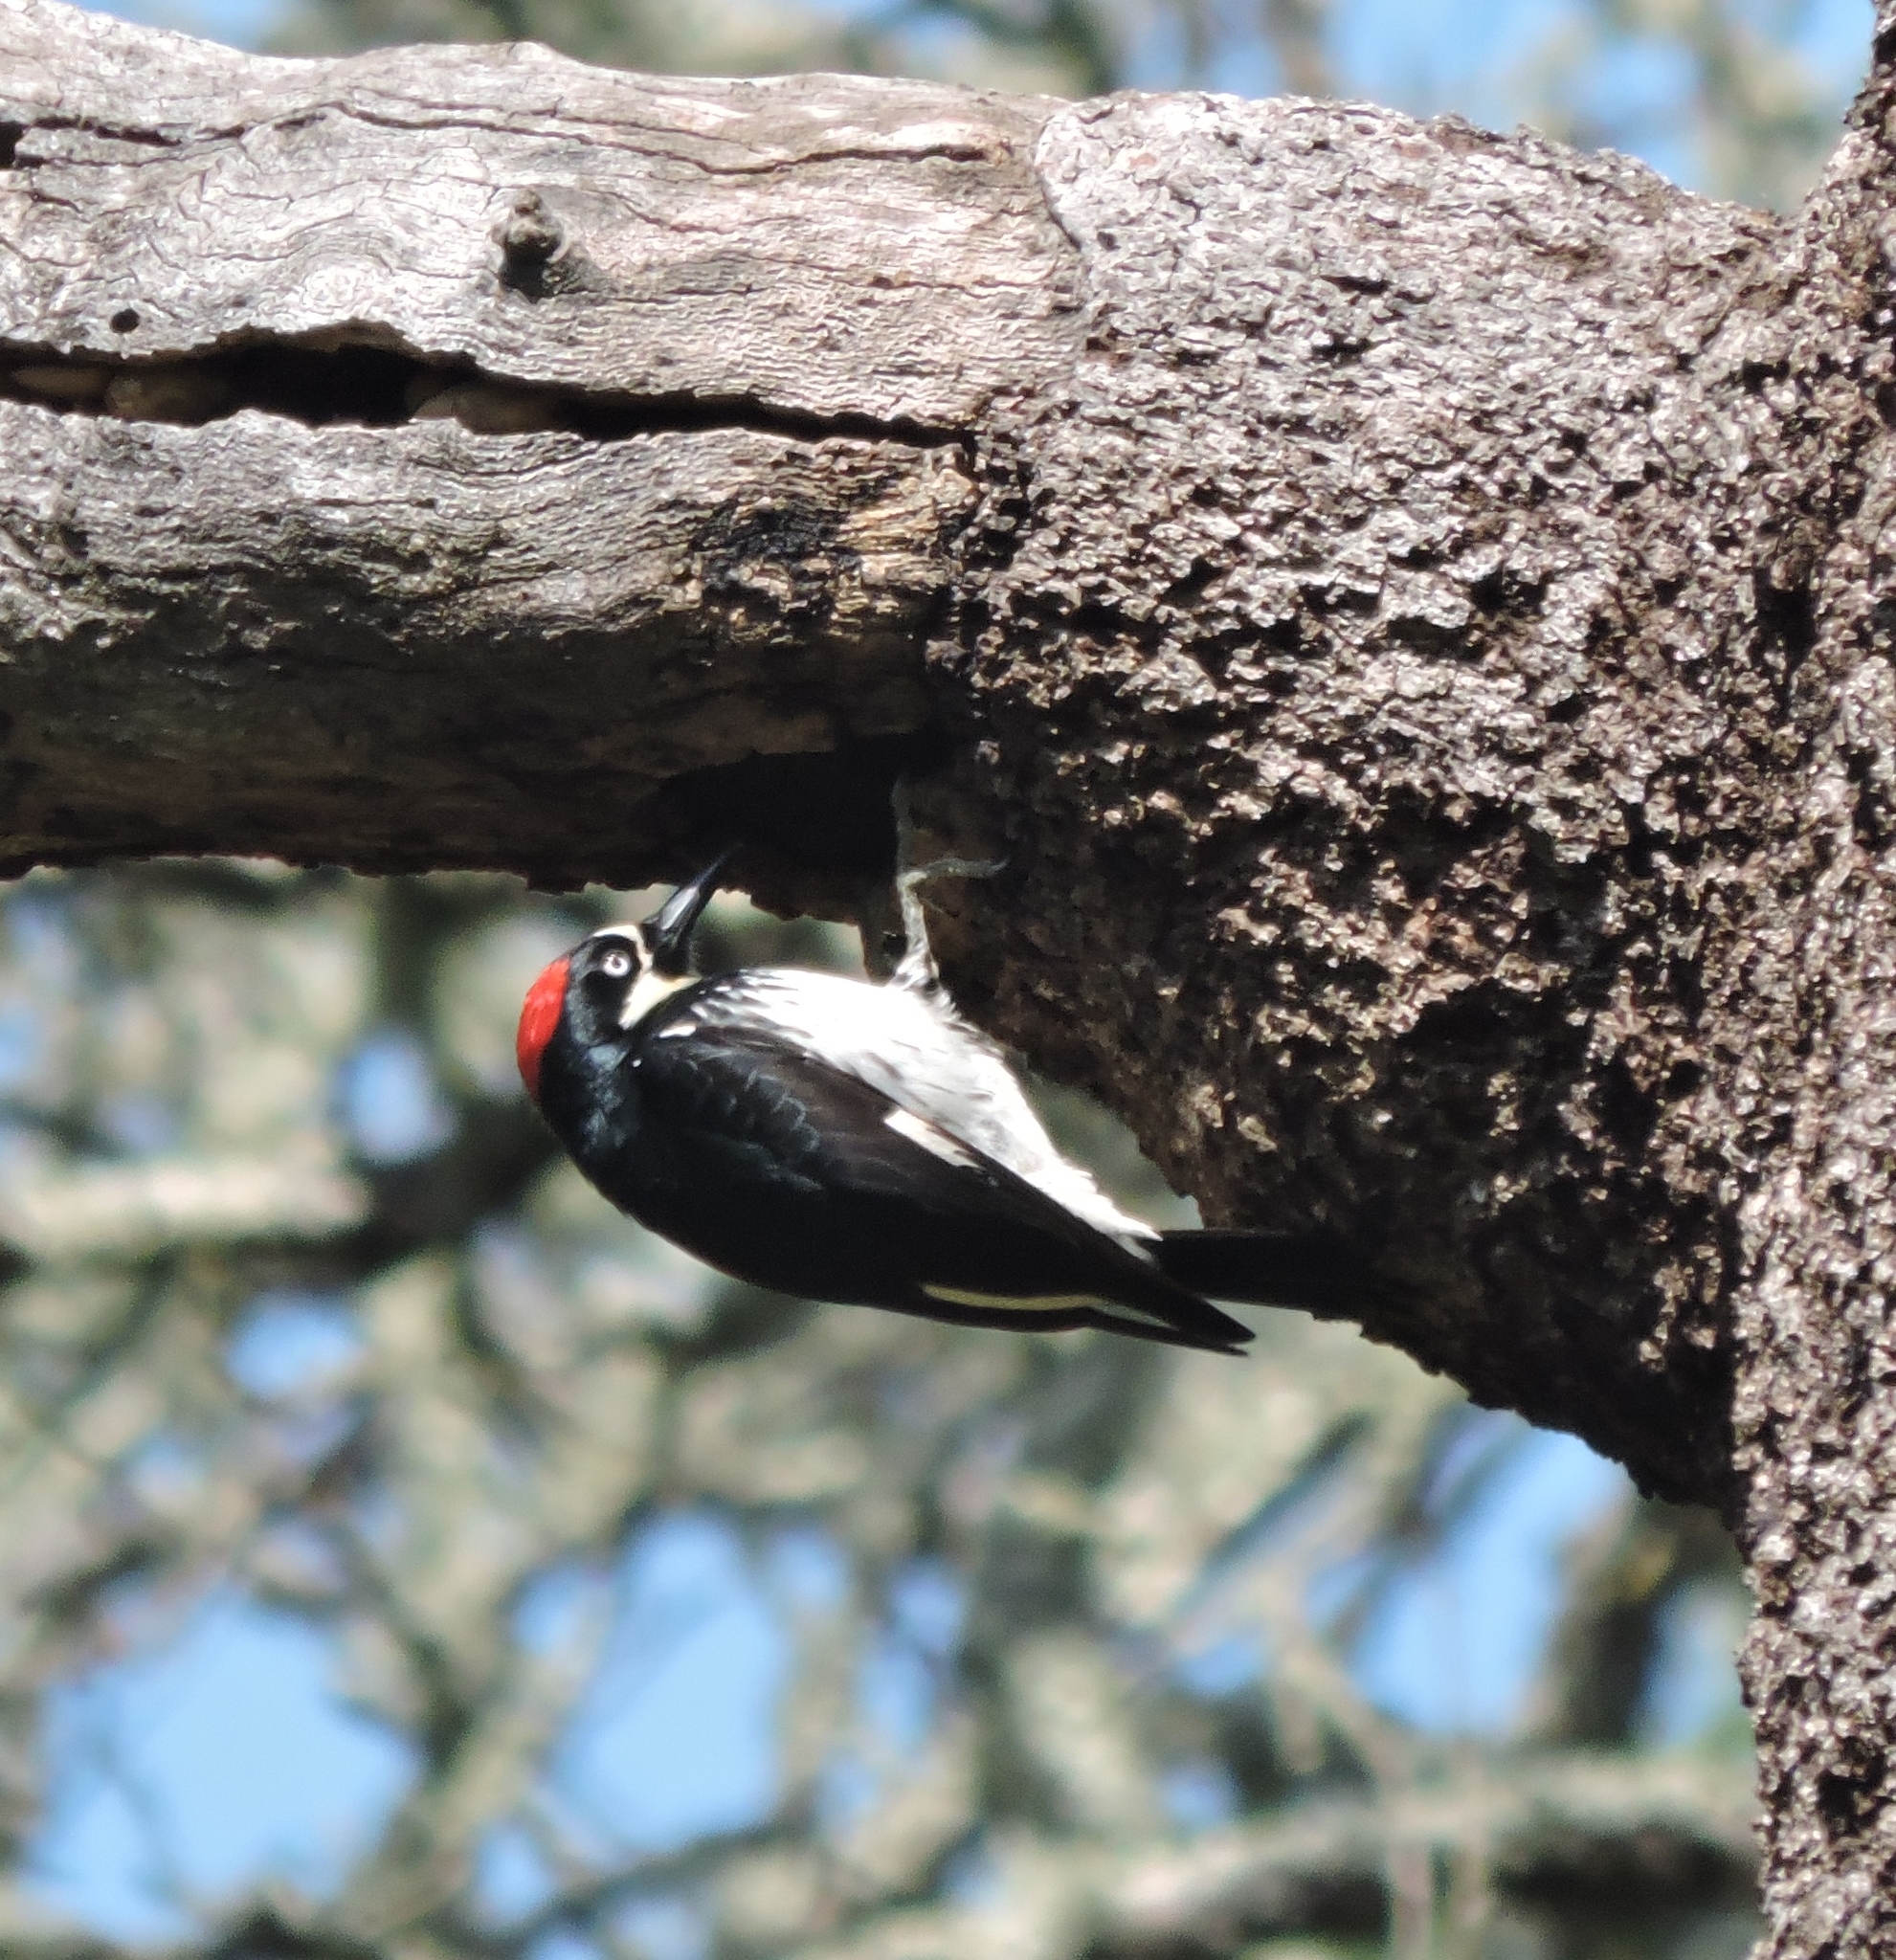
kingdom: Animalia
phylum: Chordata
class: Aves
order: Piciformes
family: Picidae
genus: Melanerpes
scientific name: Melanerpes formicivorus
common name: Acorn woodpecker
